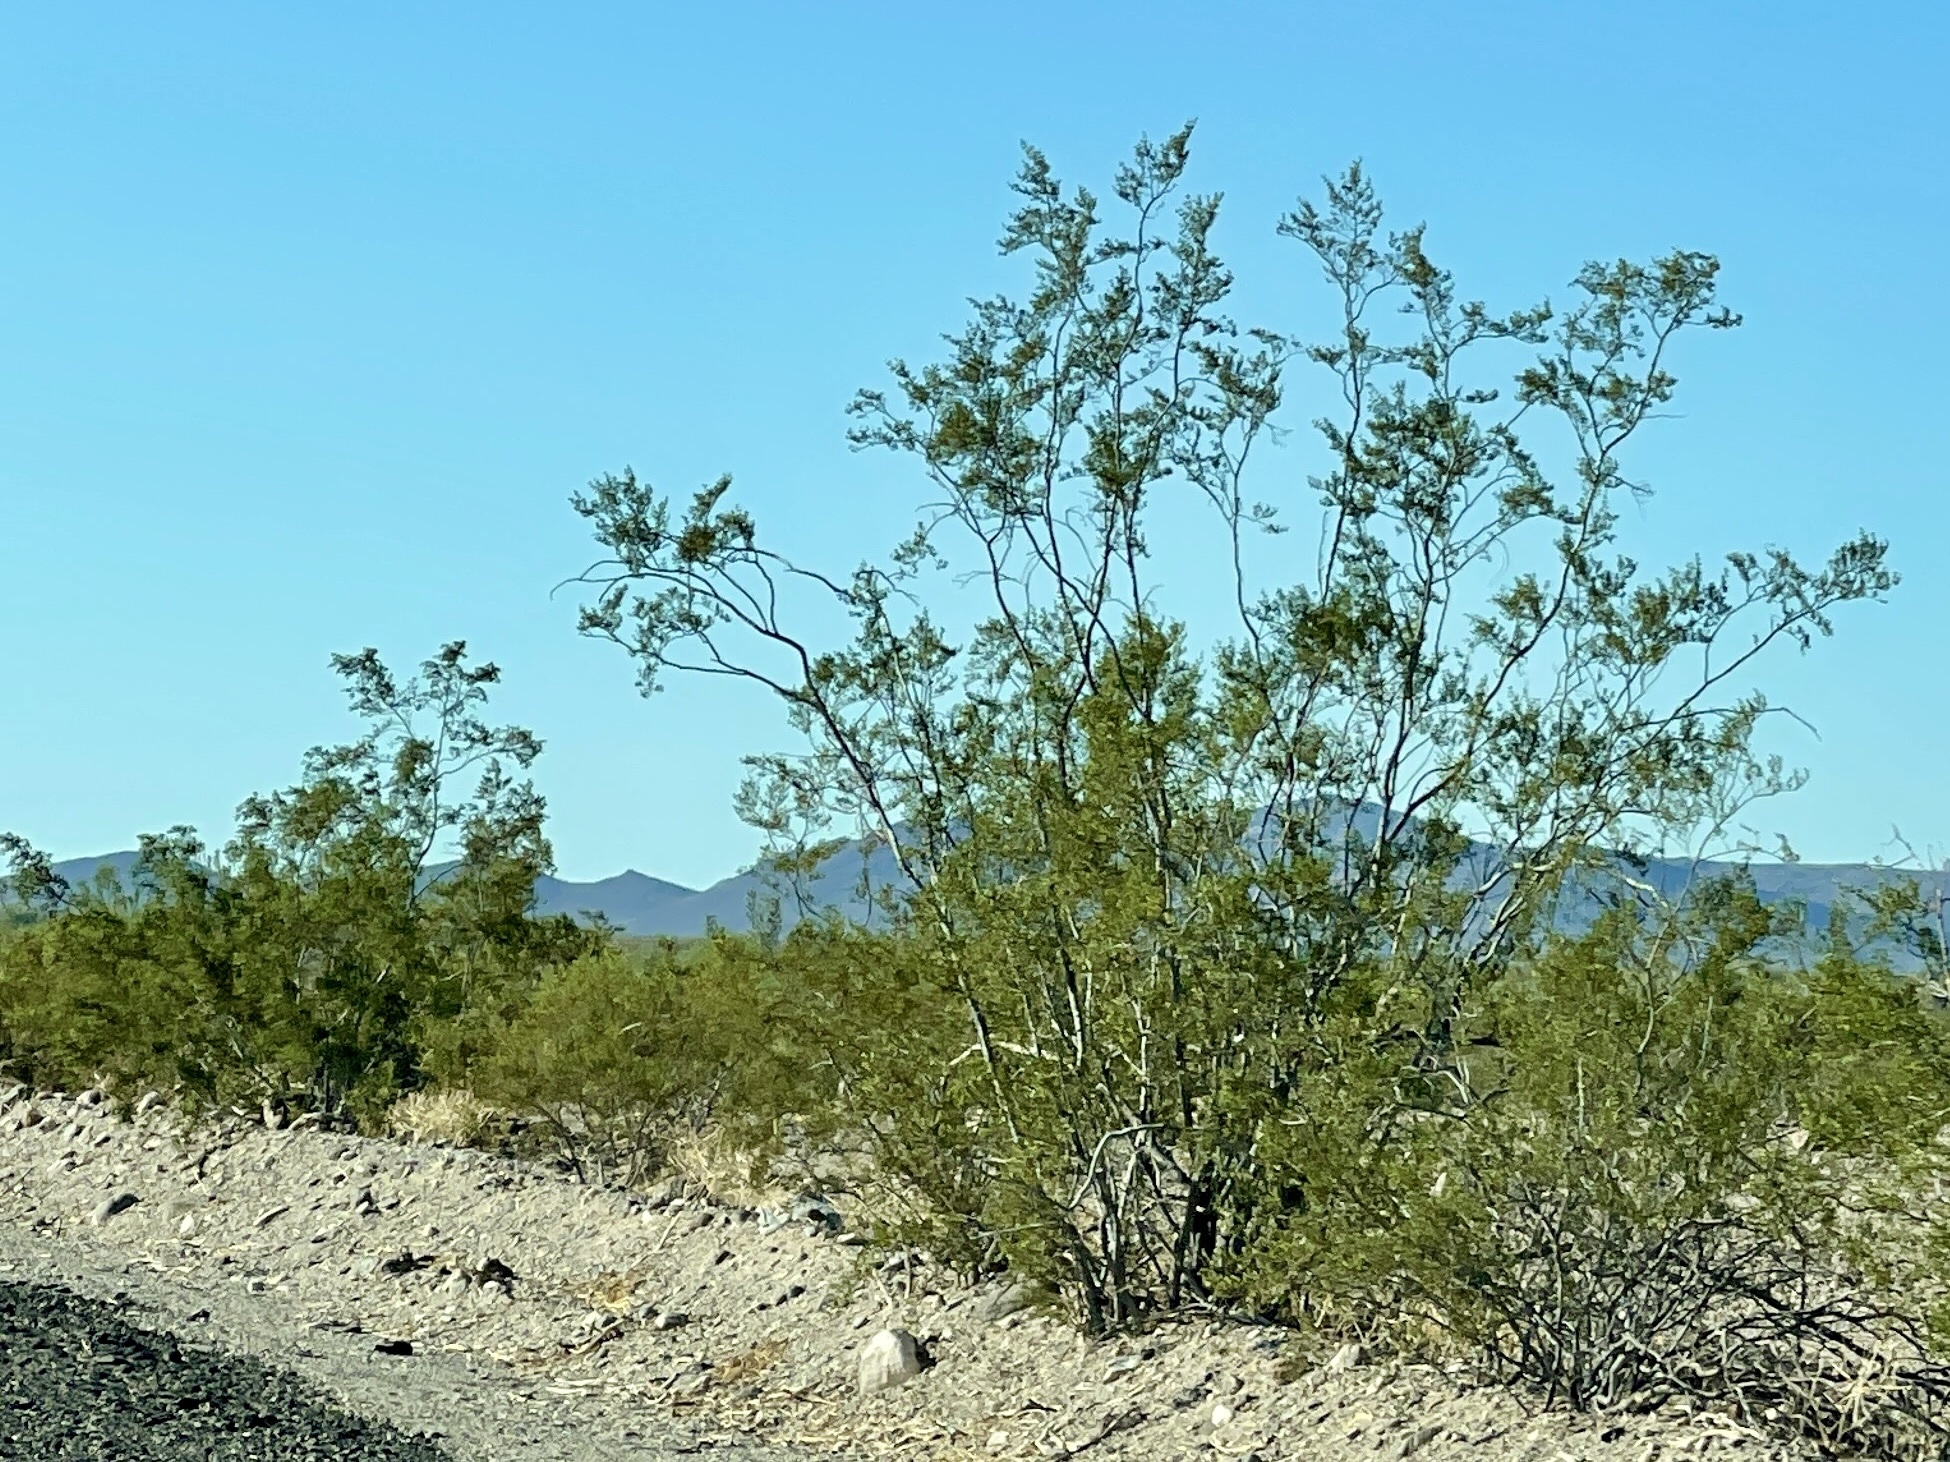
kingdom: Plantae
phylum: Tracheophyta
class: Magnoliopsida
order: Zygophyllales
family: Zygophyllaceae
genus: Larrea
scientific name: Larrea tridentata
